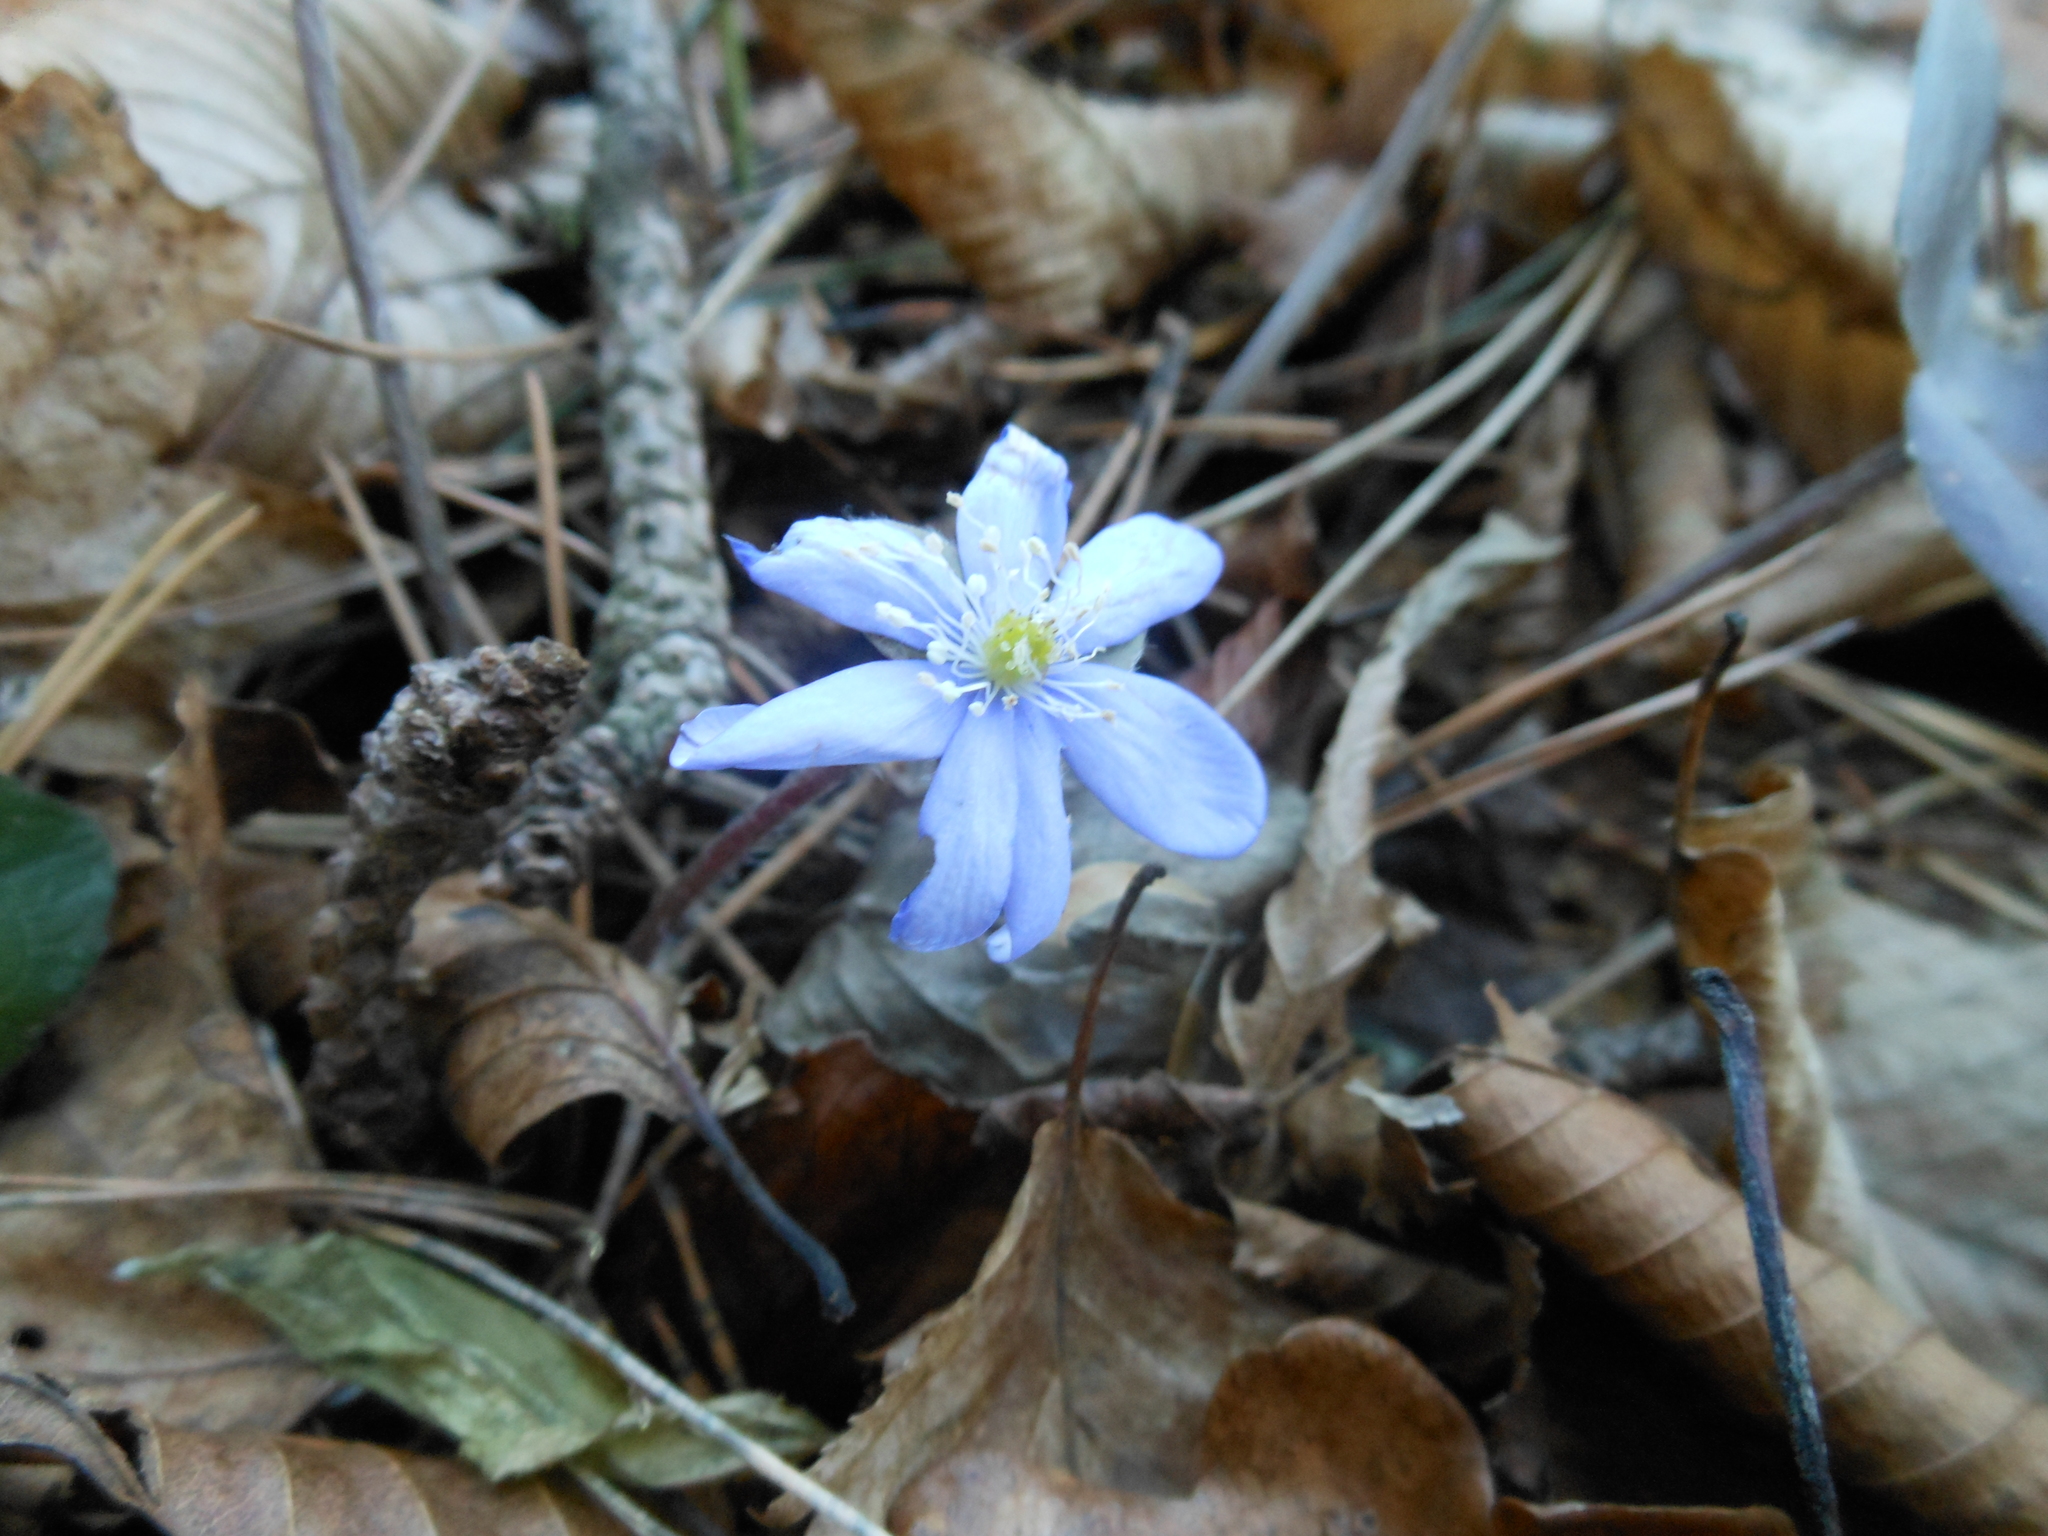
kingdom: Plantae
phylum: Tracheophyta
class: Magnoliopsida
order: Ranunculales
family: Ranunculaceae
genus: Hepatica
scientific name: Hepatica nobilis
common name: Liverleaf
